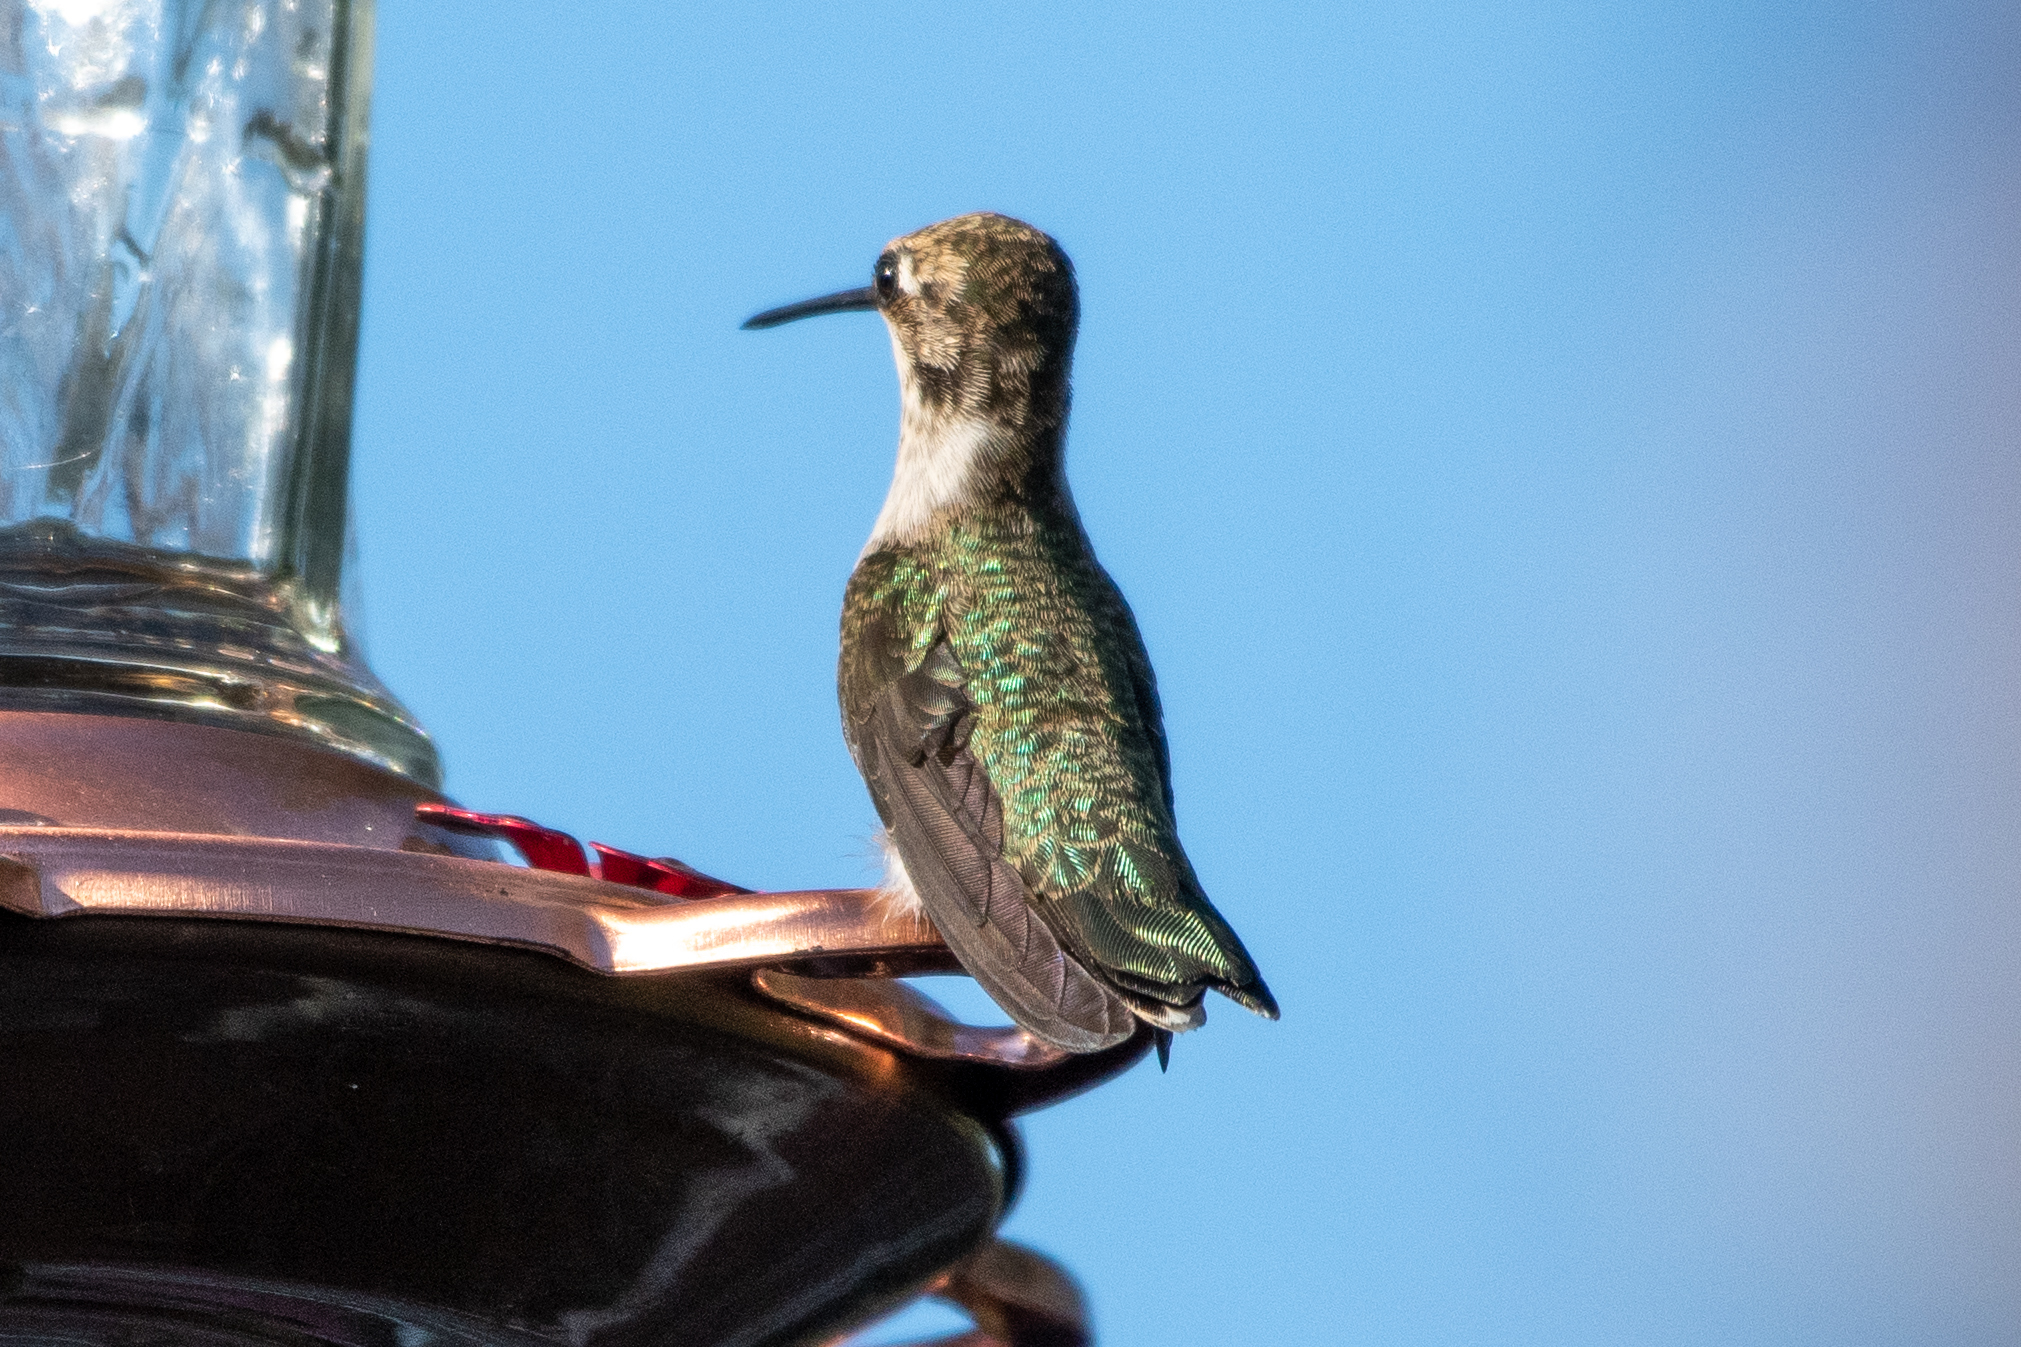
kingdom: Animalia
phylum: Chordata
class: Aves
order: Apodiformes
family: Trochilidae
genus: Archilochus
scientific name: Archilochus alexandri
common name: Black-chinned hummingbird
